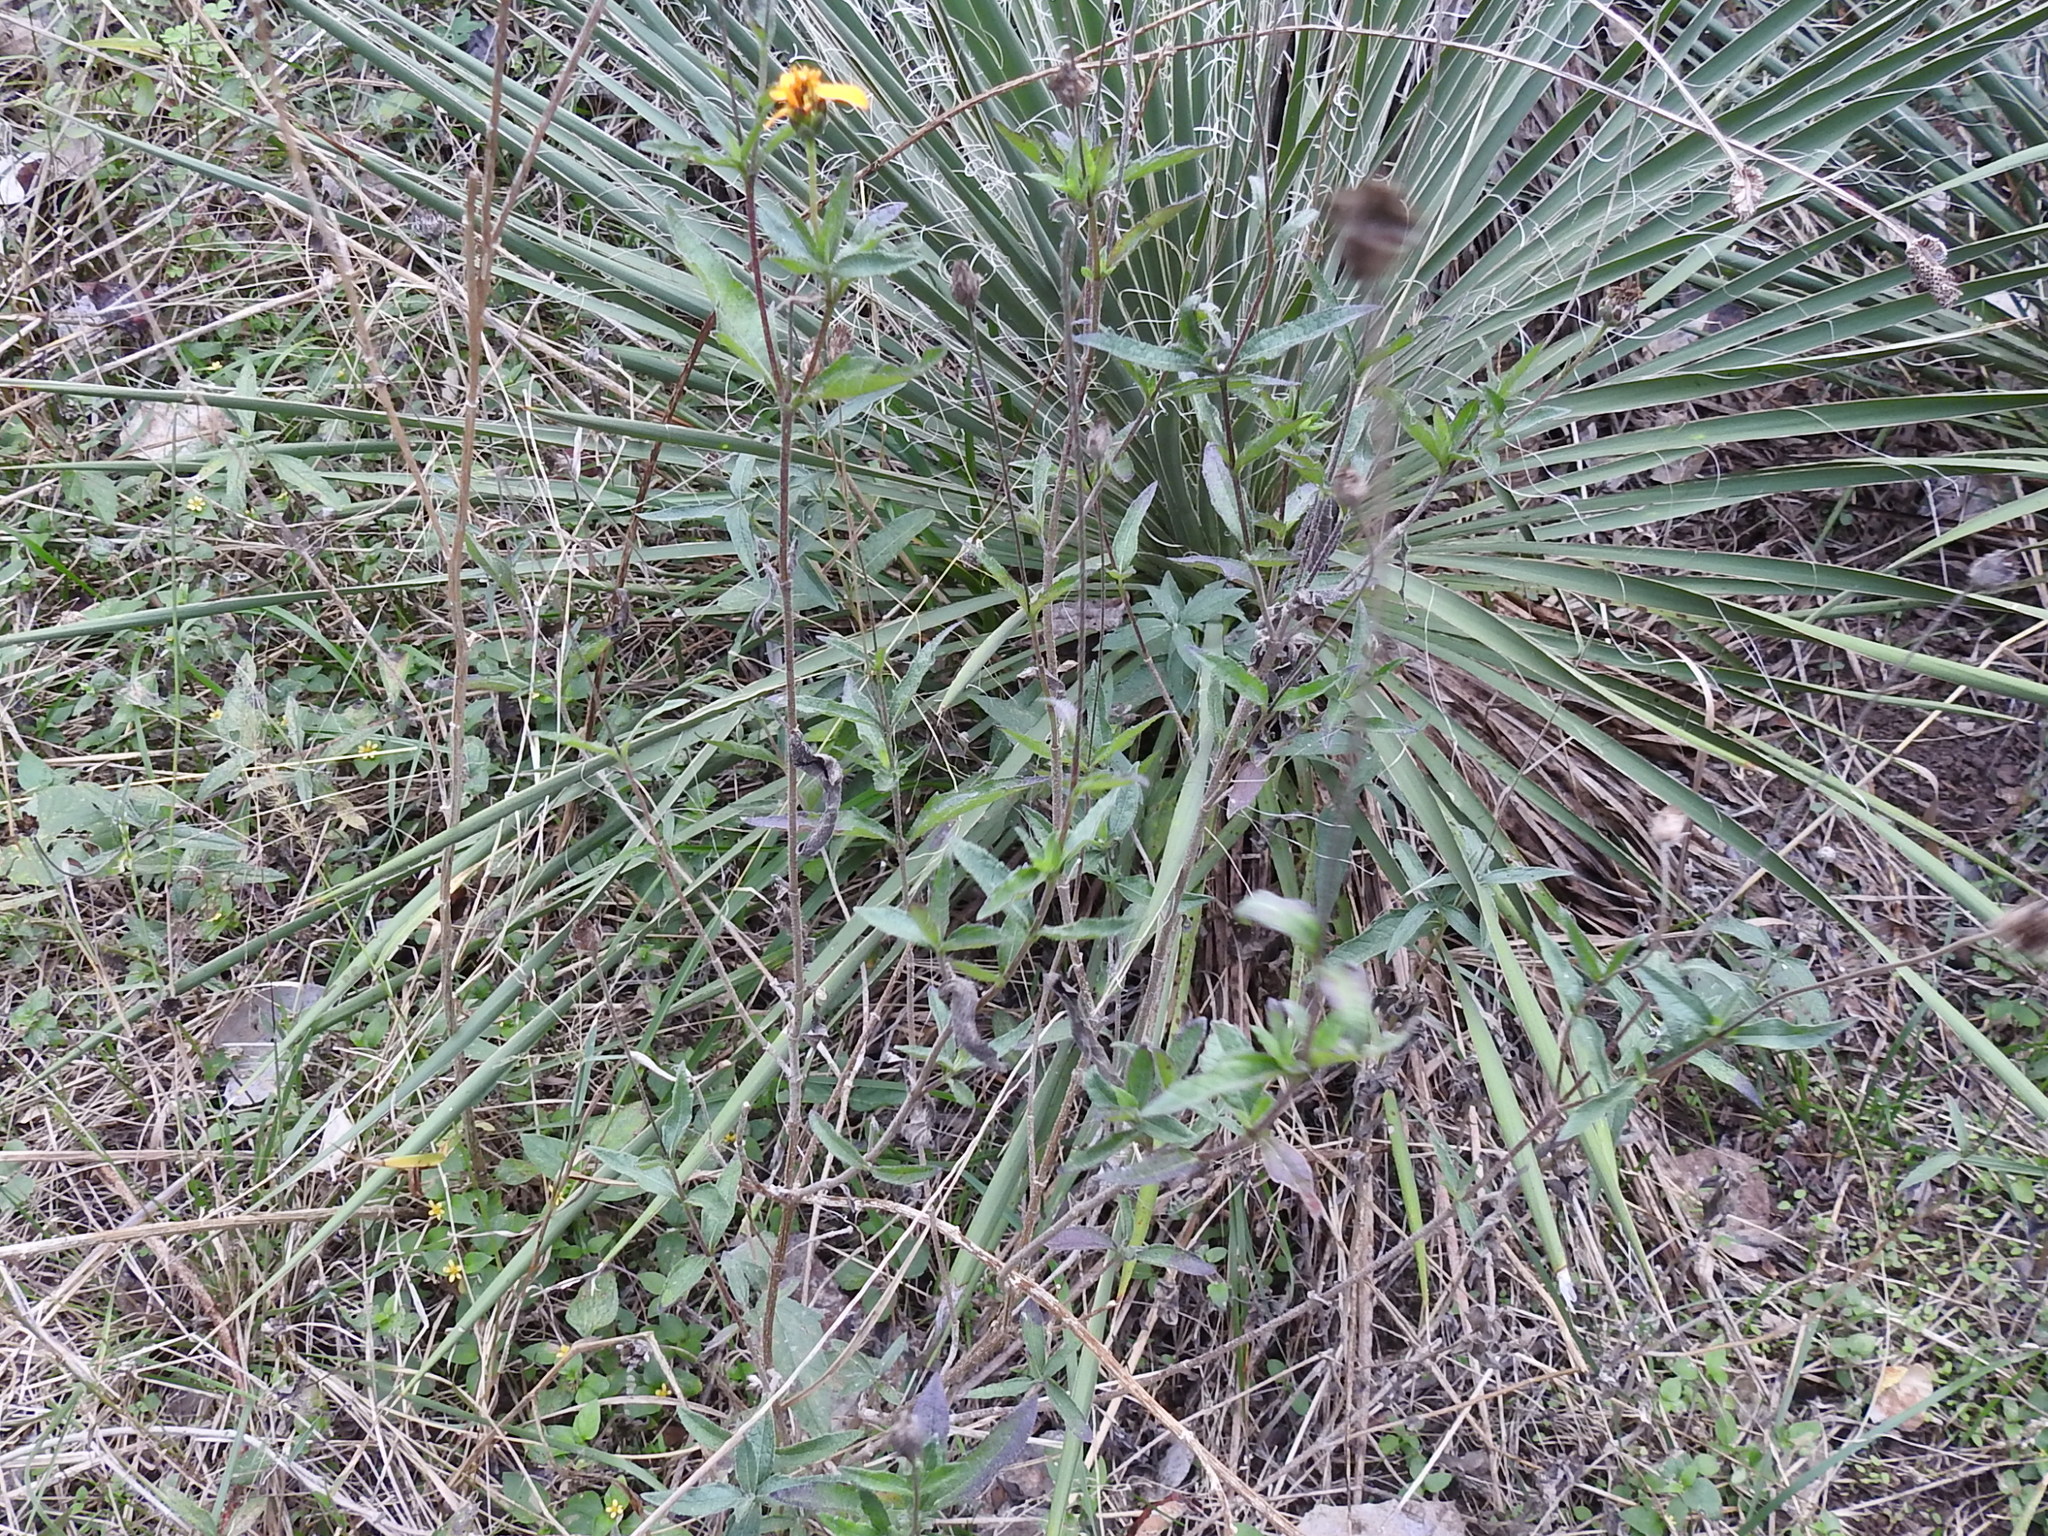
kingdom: Plantae
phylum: Tracheophyta
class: Magnoliopsida
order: Asterales
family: Asteraceae
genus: Wedelia
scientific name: Wedelia acapulcensis
